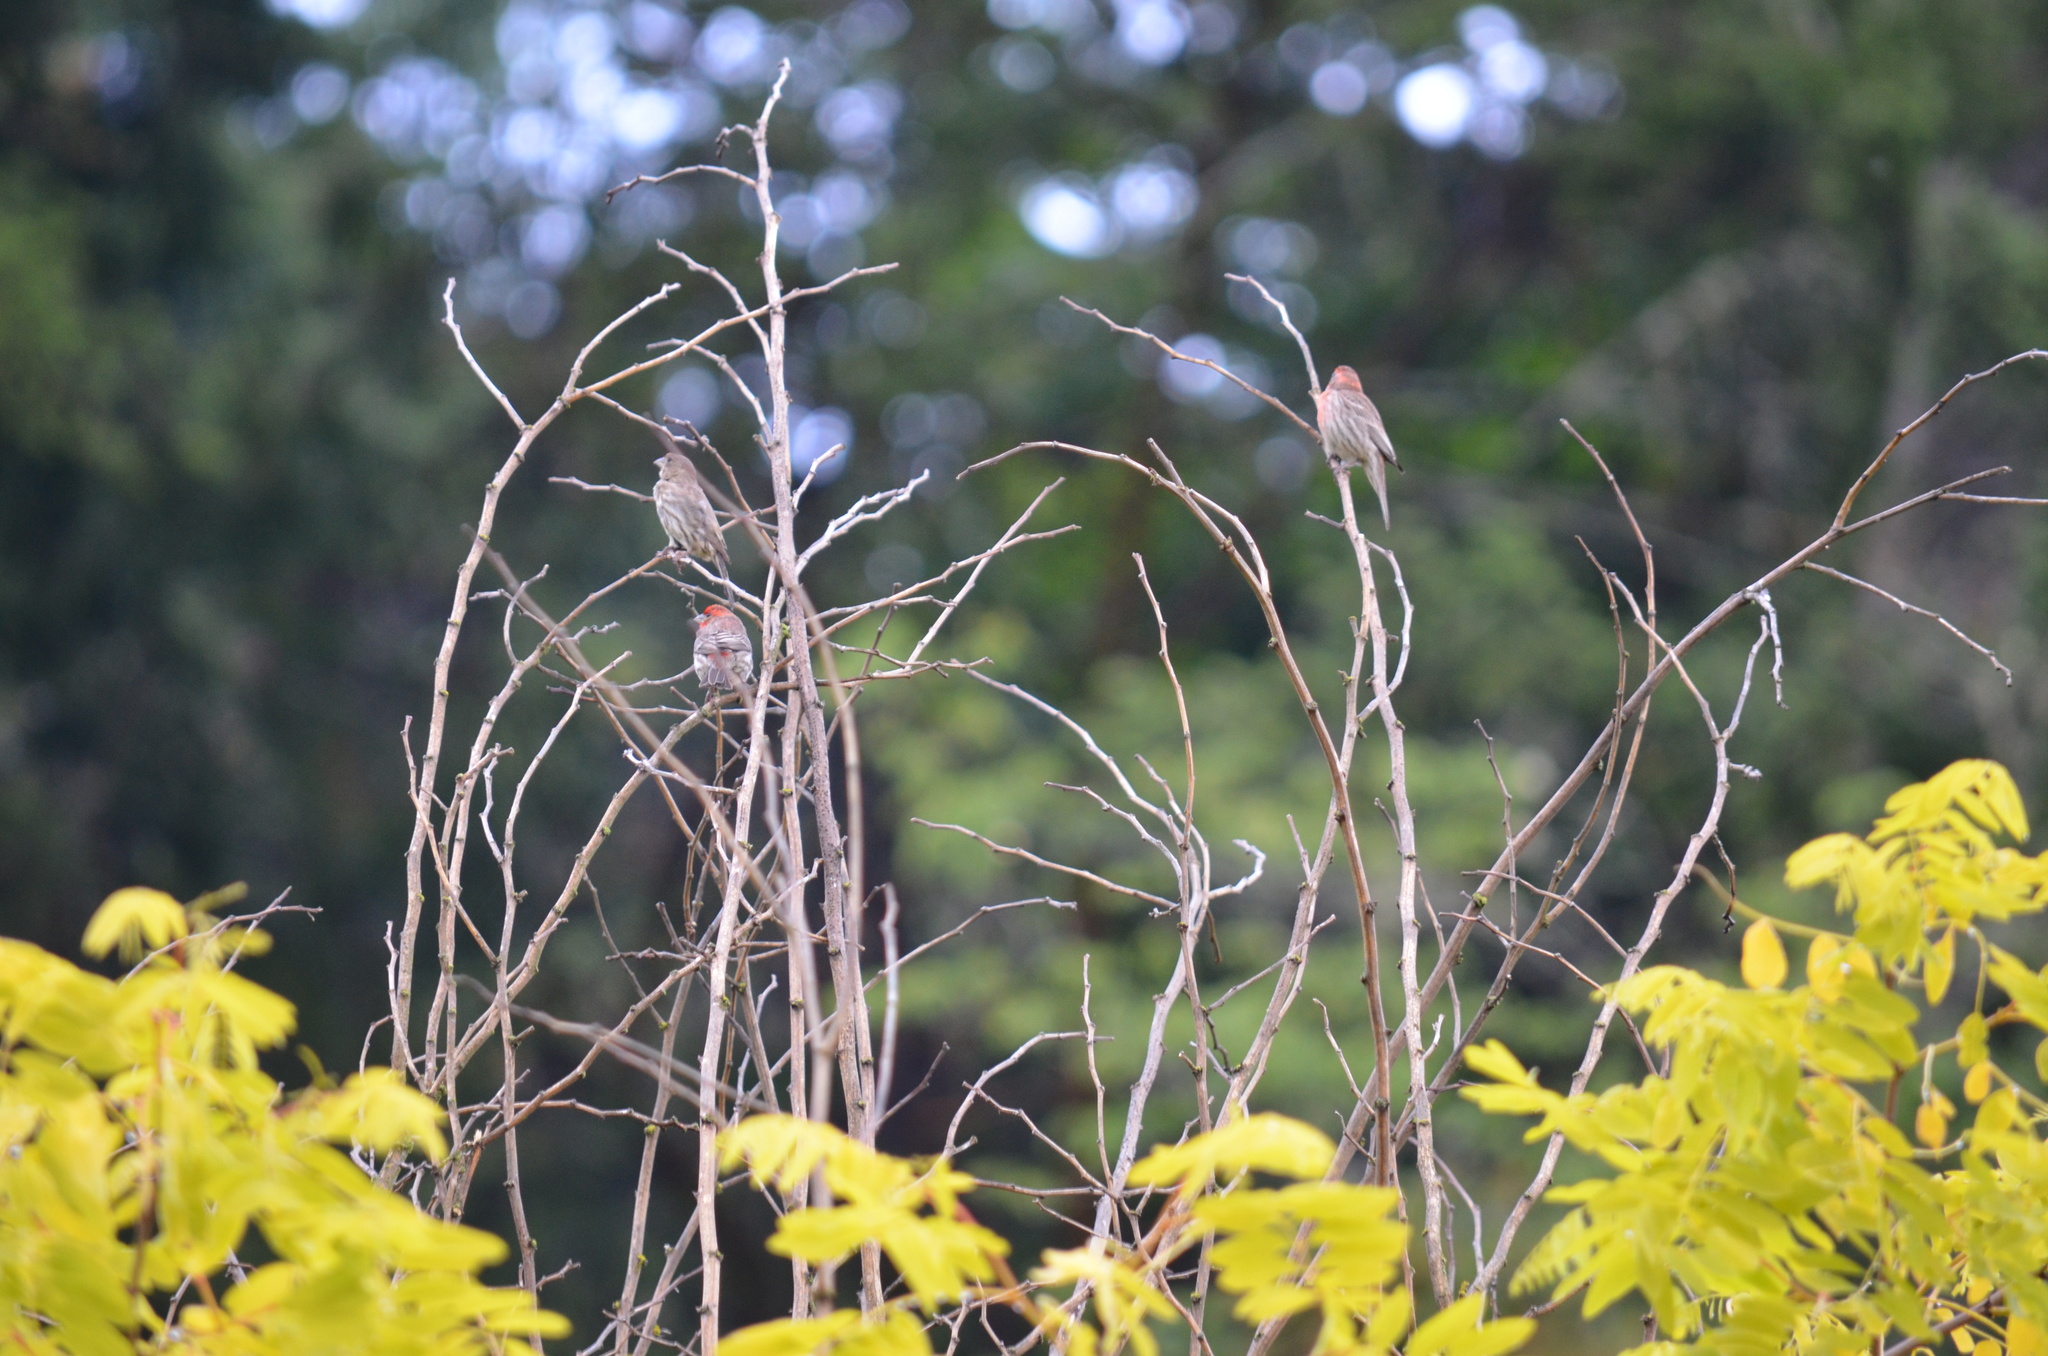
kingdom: Animalia
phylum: Chordata
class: Aves
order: Passeriformes
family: Fringillidae
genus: Haemorhous
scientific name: Haemorhous mexicanus
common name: House finch
